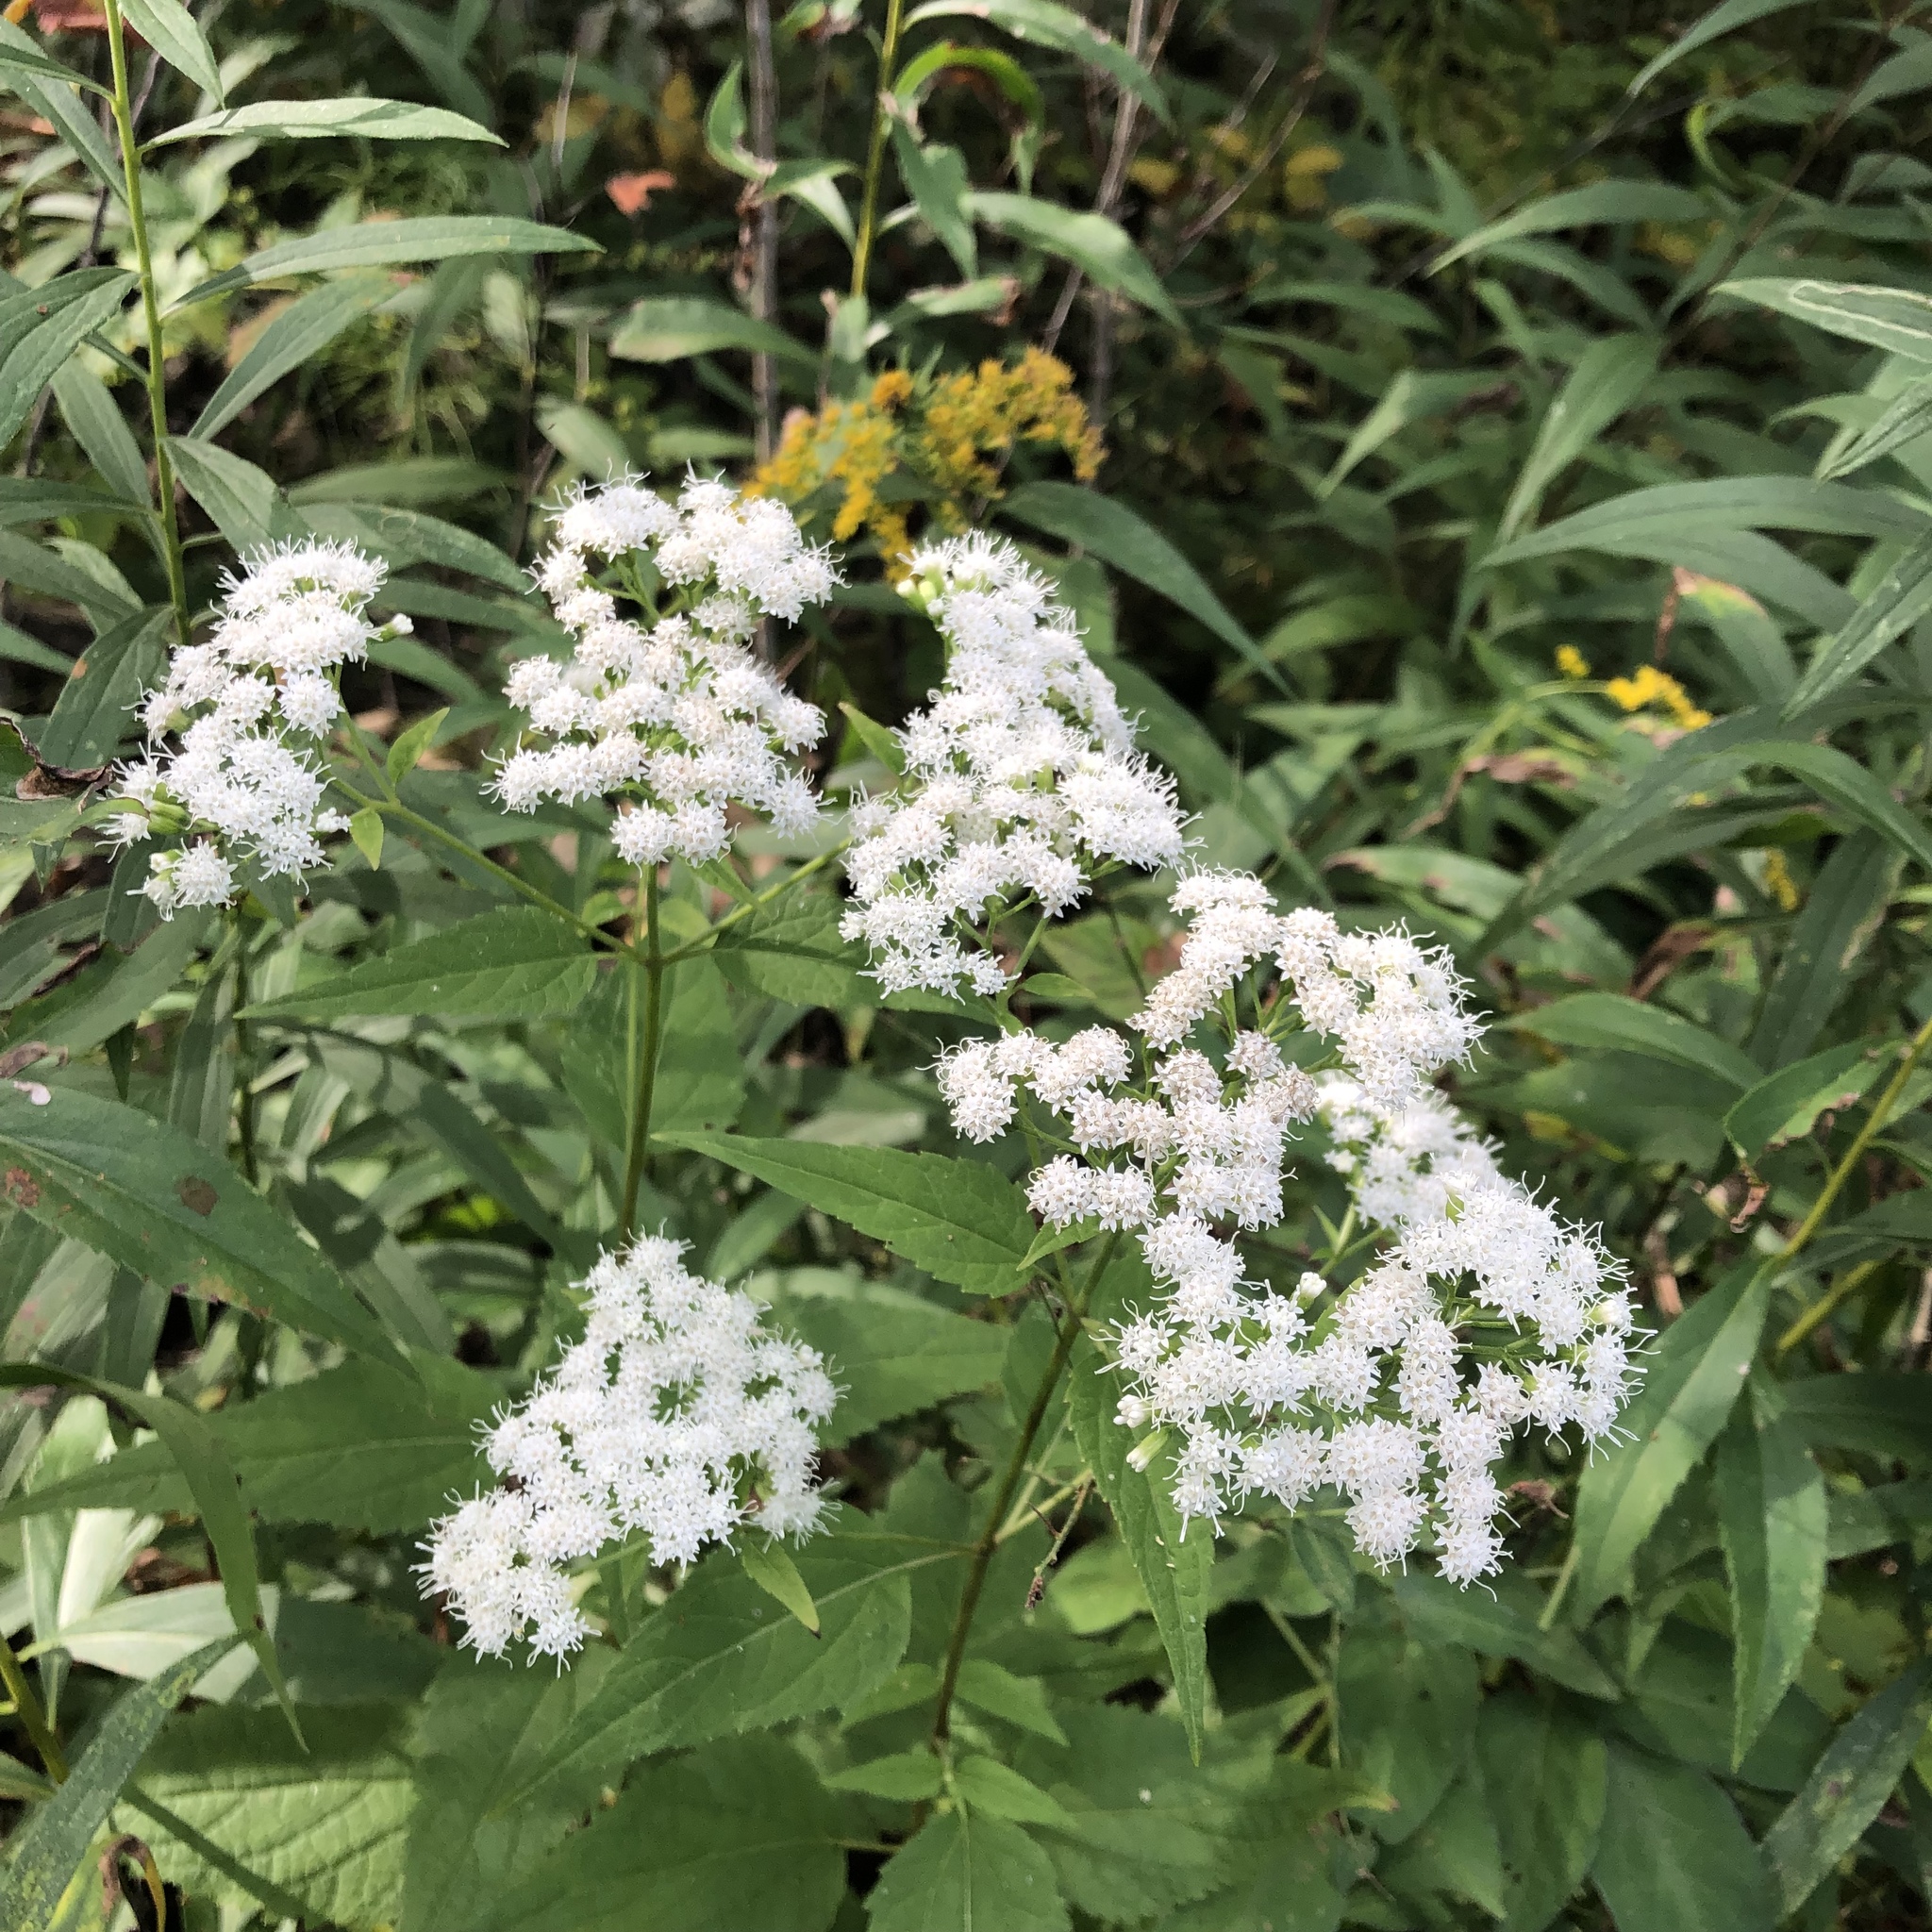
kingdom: Plantae
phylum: Tracheophyta
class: Magnoliopsida
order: Asterales
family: Asteraceae
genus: Ageratina
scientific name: Ageratina altissima
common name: White snakeroot
